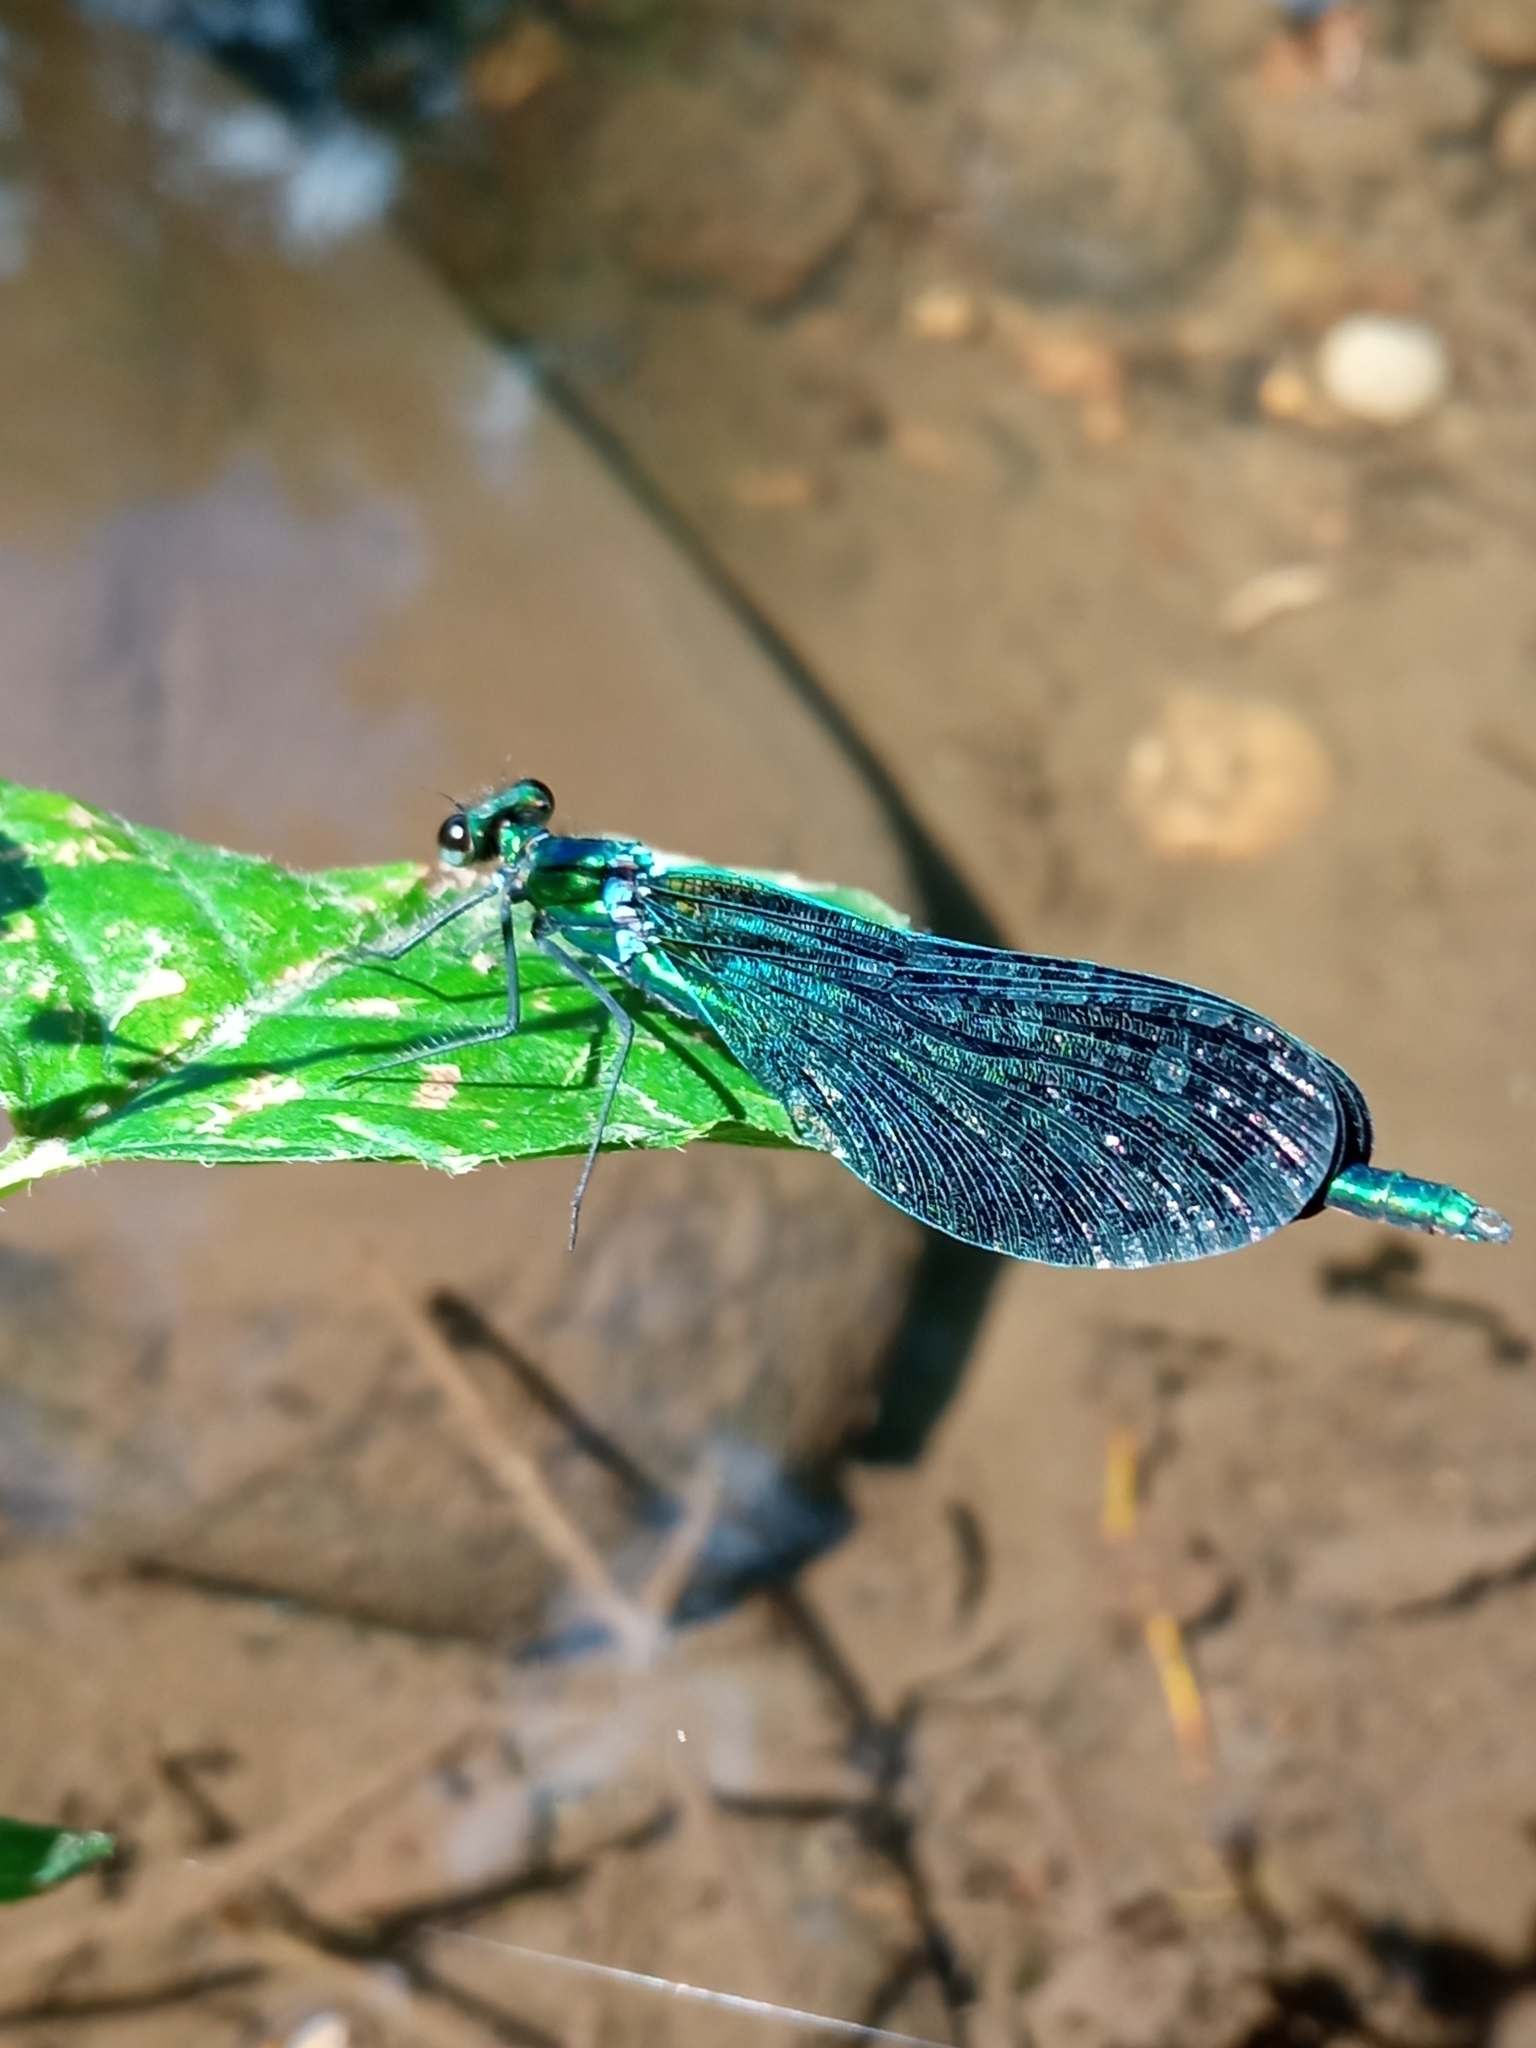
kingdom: Animalia
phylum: Arthropoda
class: Insecta
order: Odonata
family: Calopterygidae
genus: Calopteryx
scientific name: Calopteryx virgo
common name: Beautiful demoiselle
